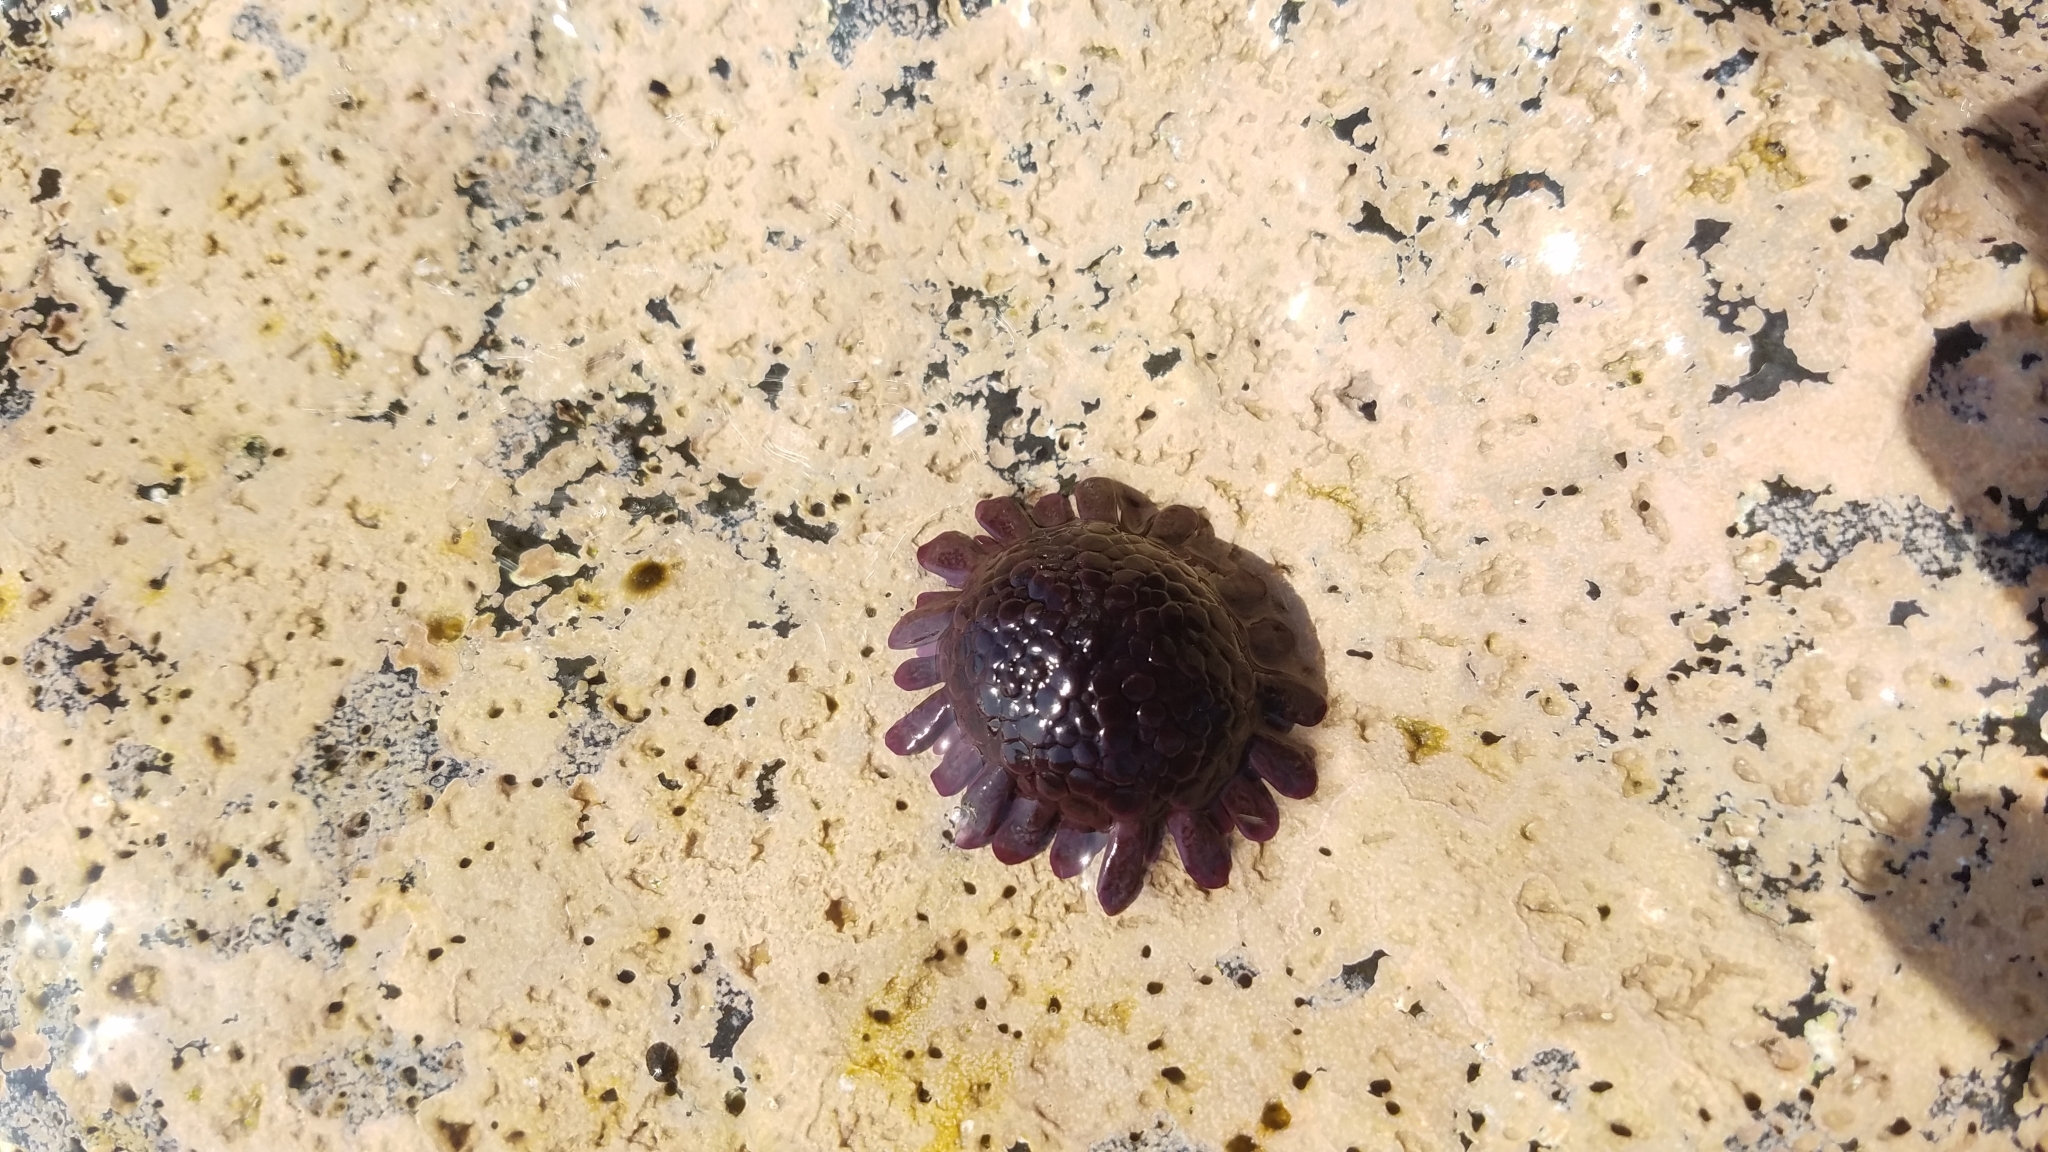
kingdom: Animalia
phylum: Echinodermata
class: Echinoidea
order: Camarodonta
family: Echinometridae
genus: Colobocentrotus
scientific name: Colobocentrotus atratus
